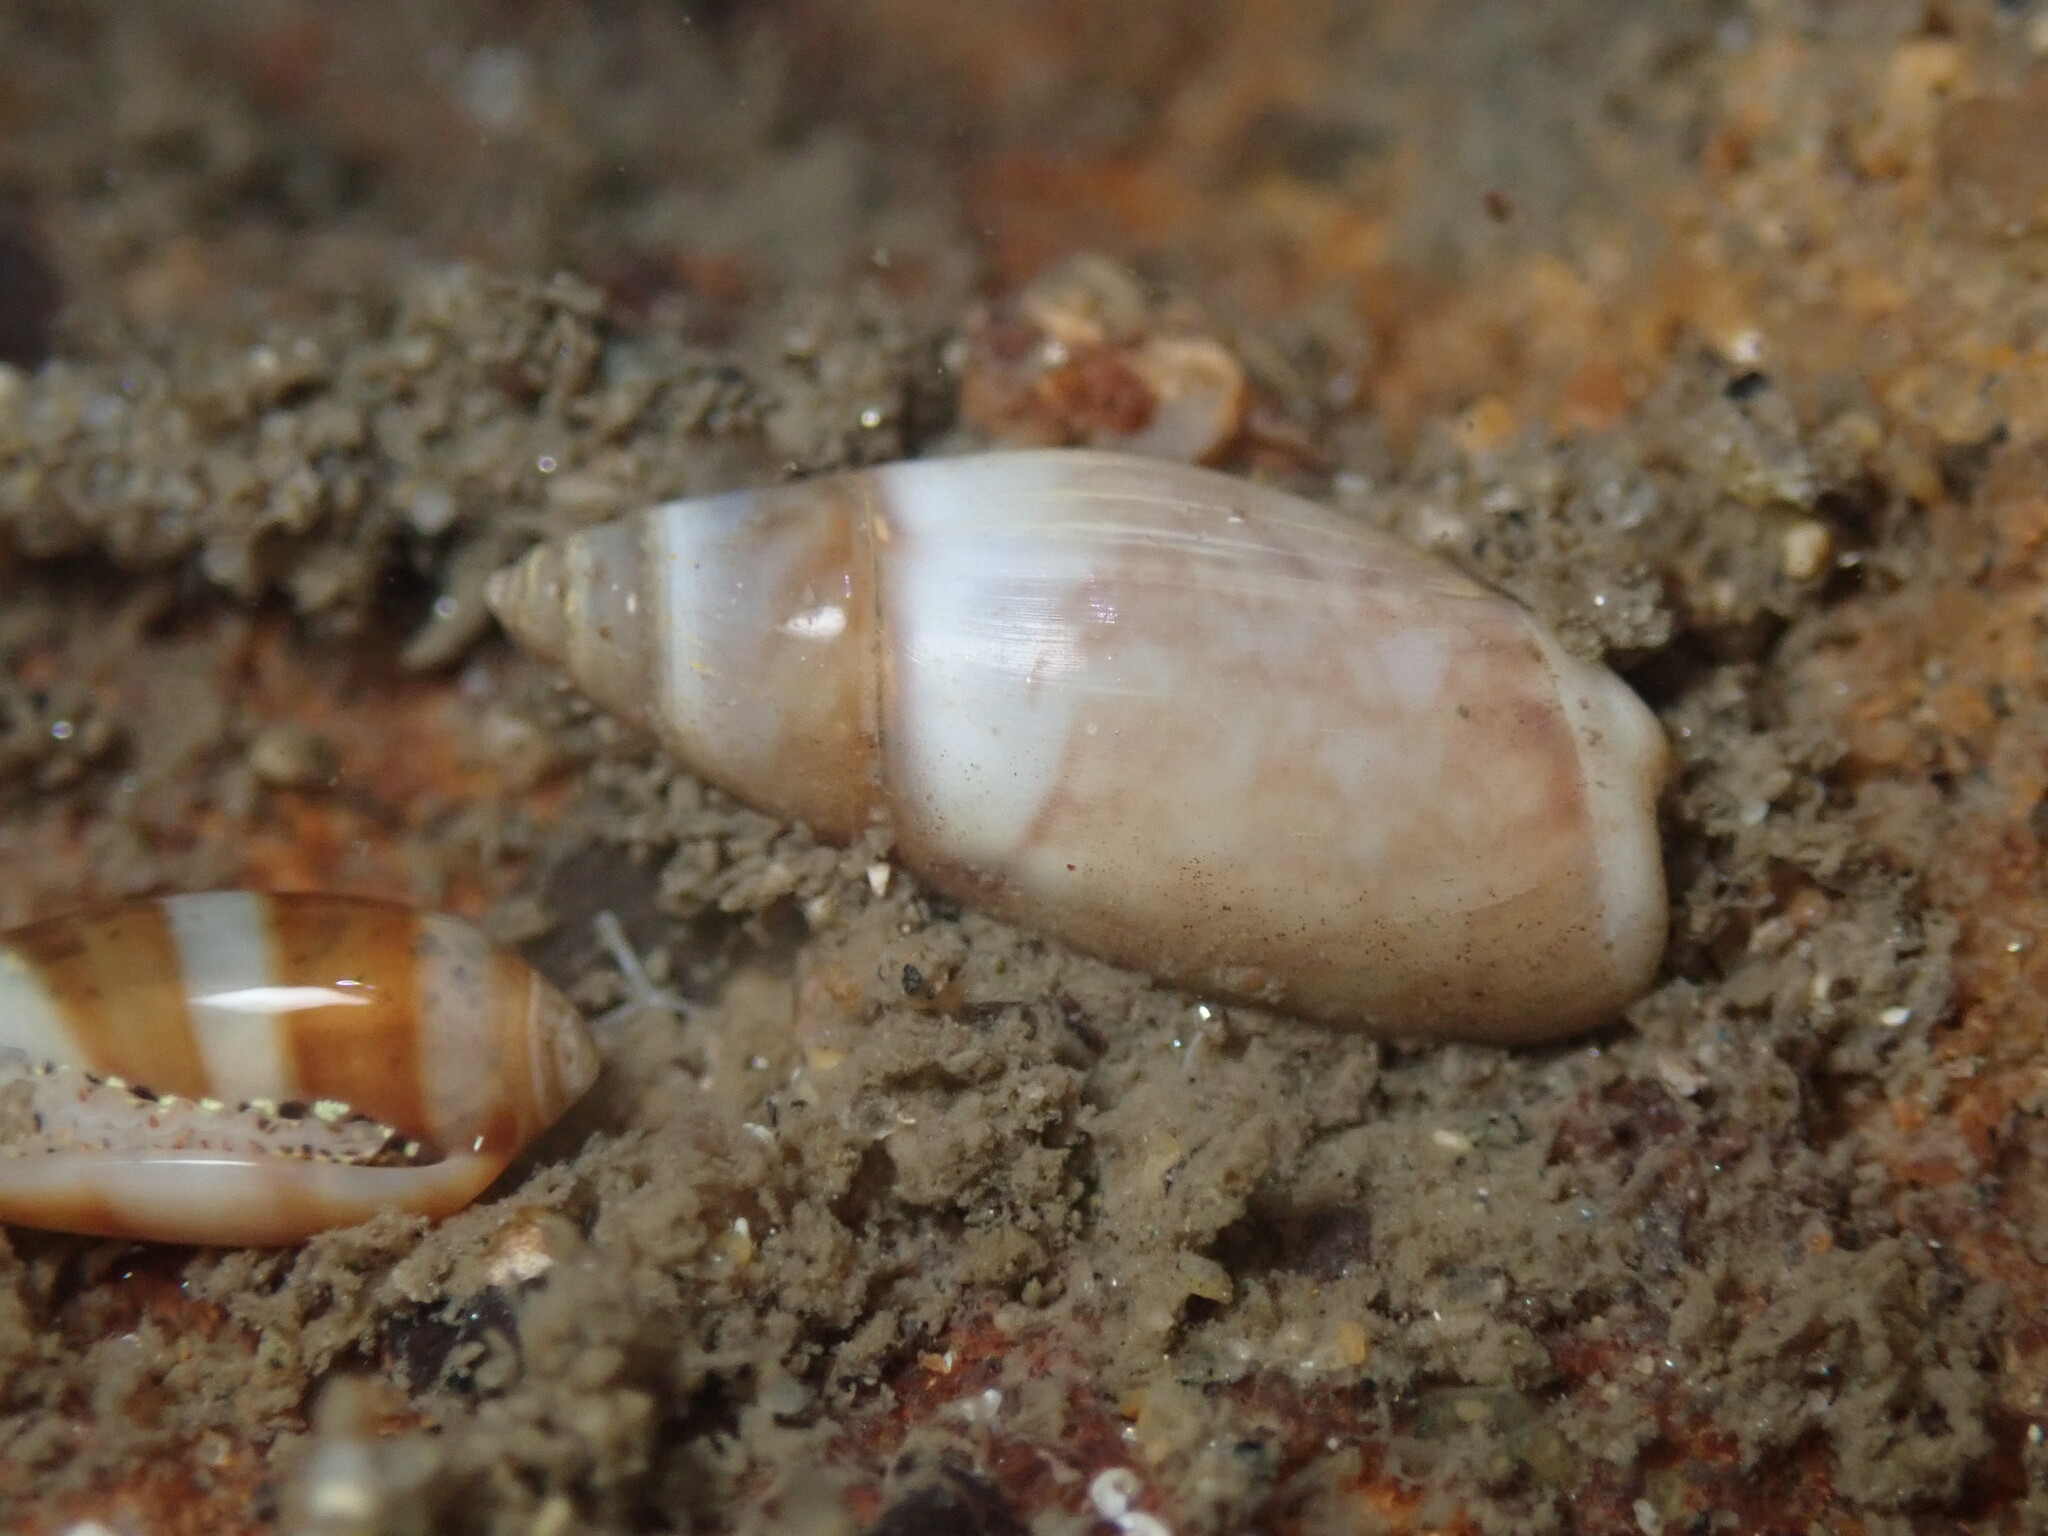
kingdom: Animalia
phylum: Mollusca
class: Gastropoda
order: Neogastropoda
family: Olividae
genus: Callianax
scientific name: Callianax alectona
